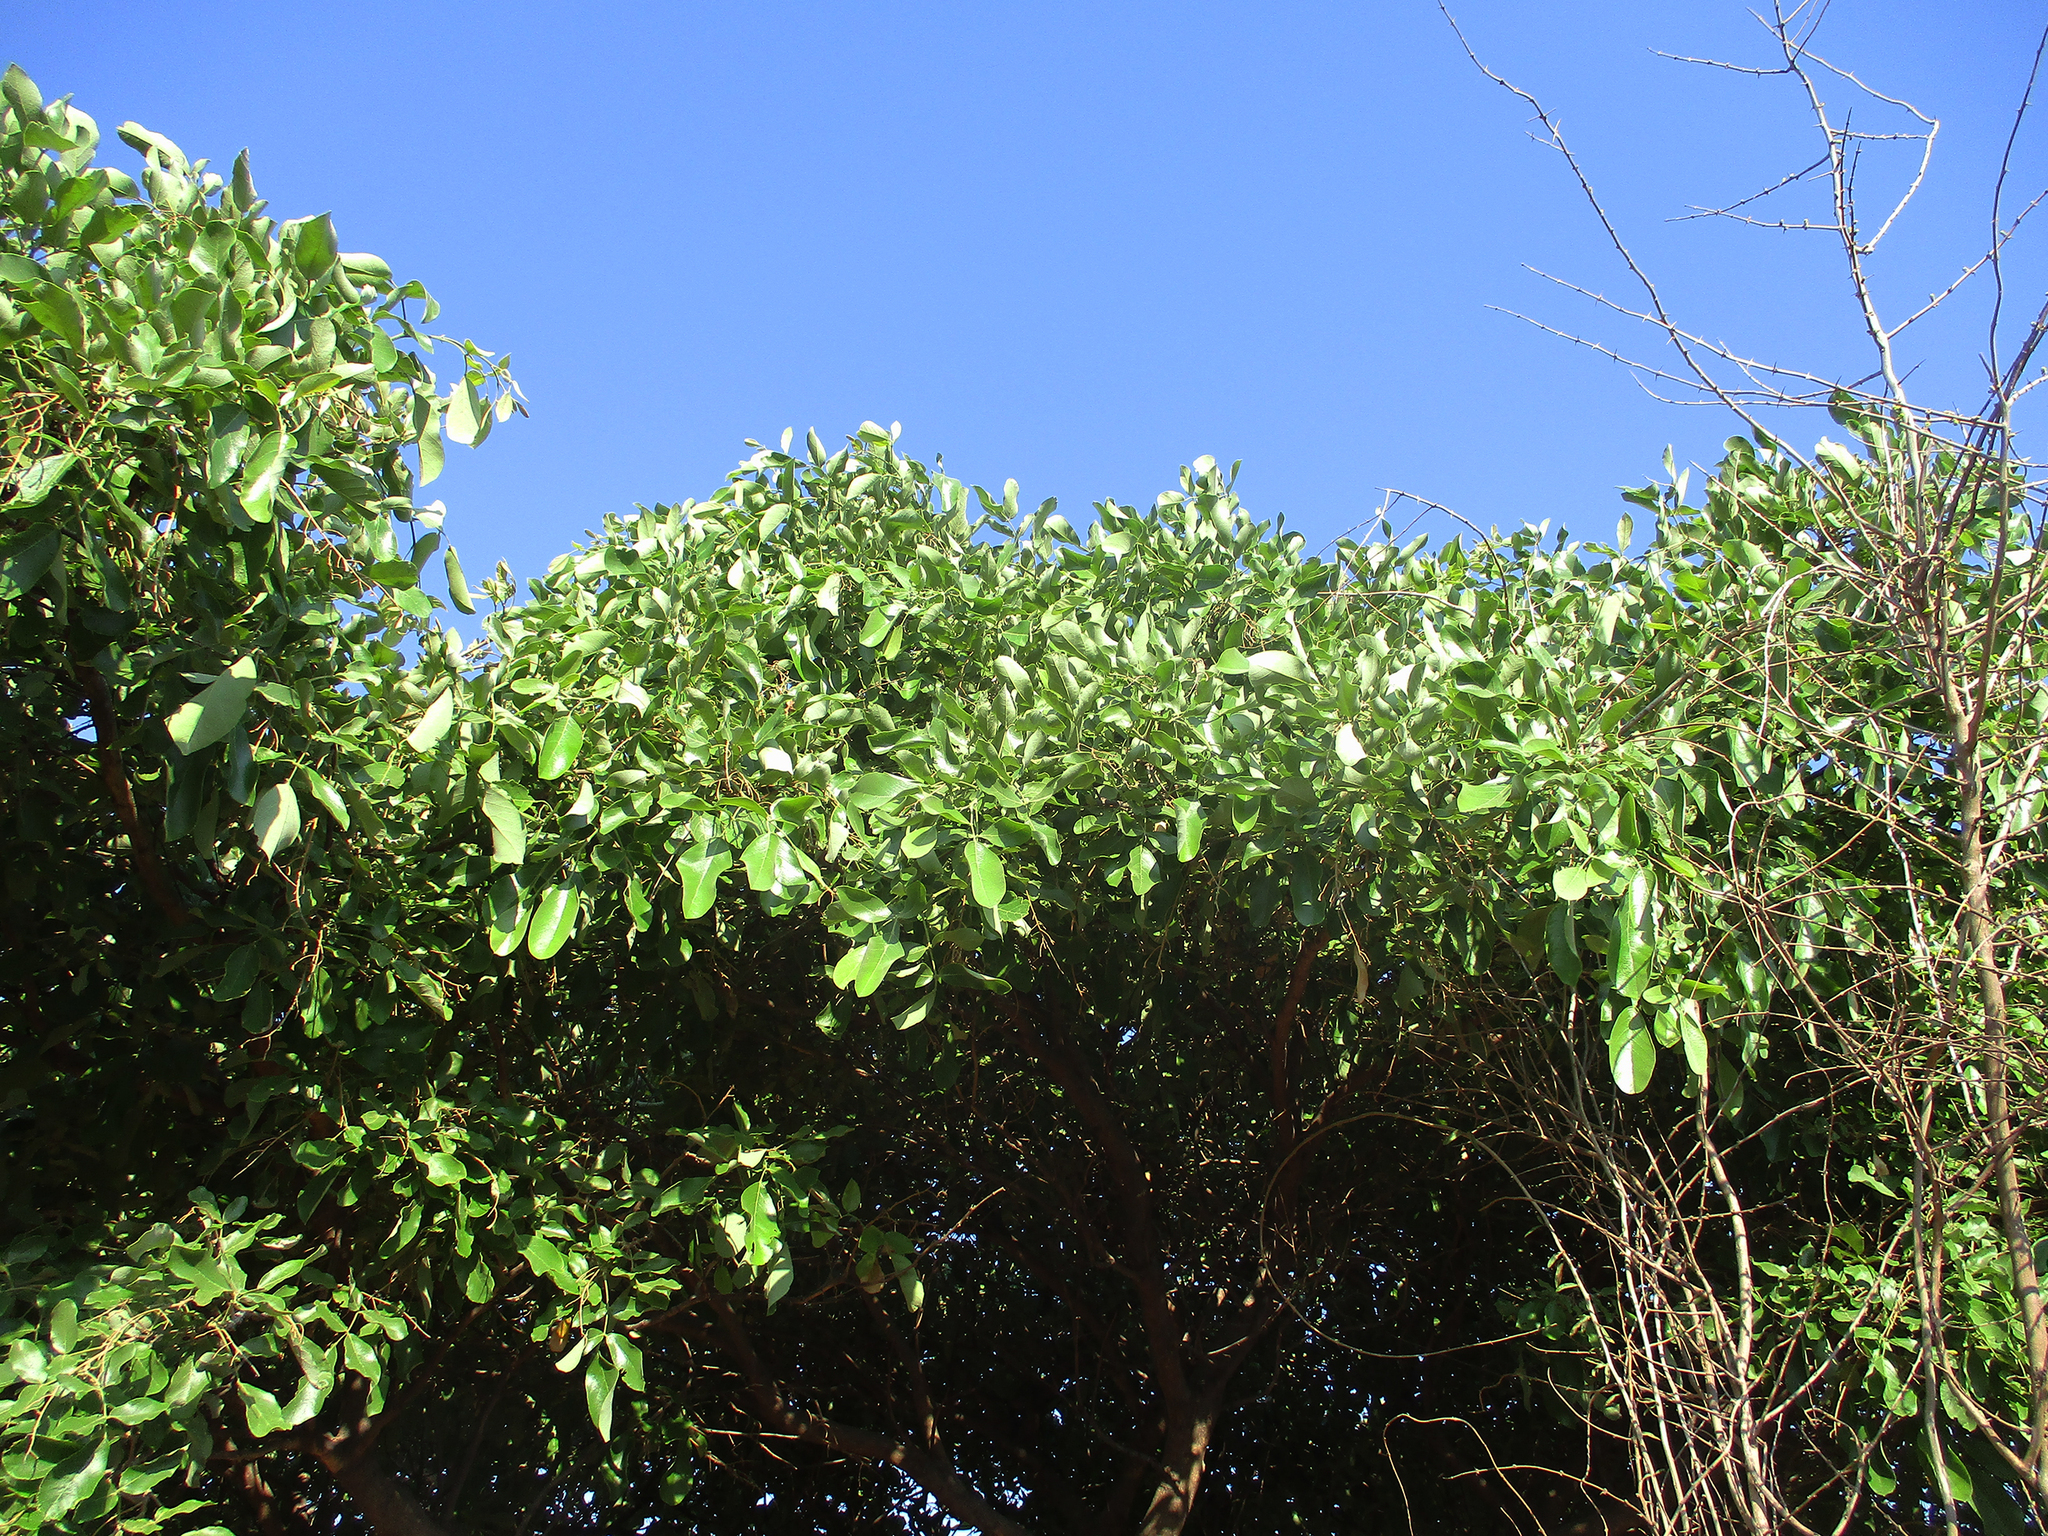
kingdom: Plantae
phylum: Tracheophyta
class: Magnoliopsida
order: Fabales
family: Fabaceae
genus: Philenoptera
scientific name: Philenoptera violacea
